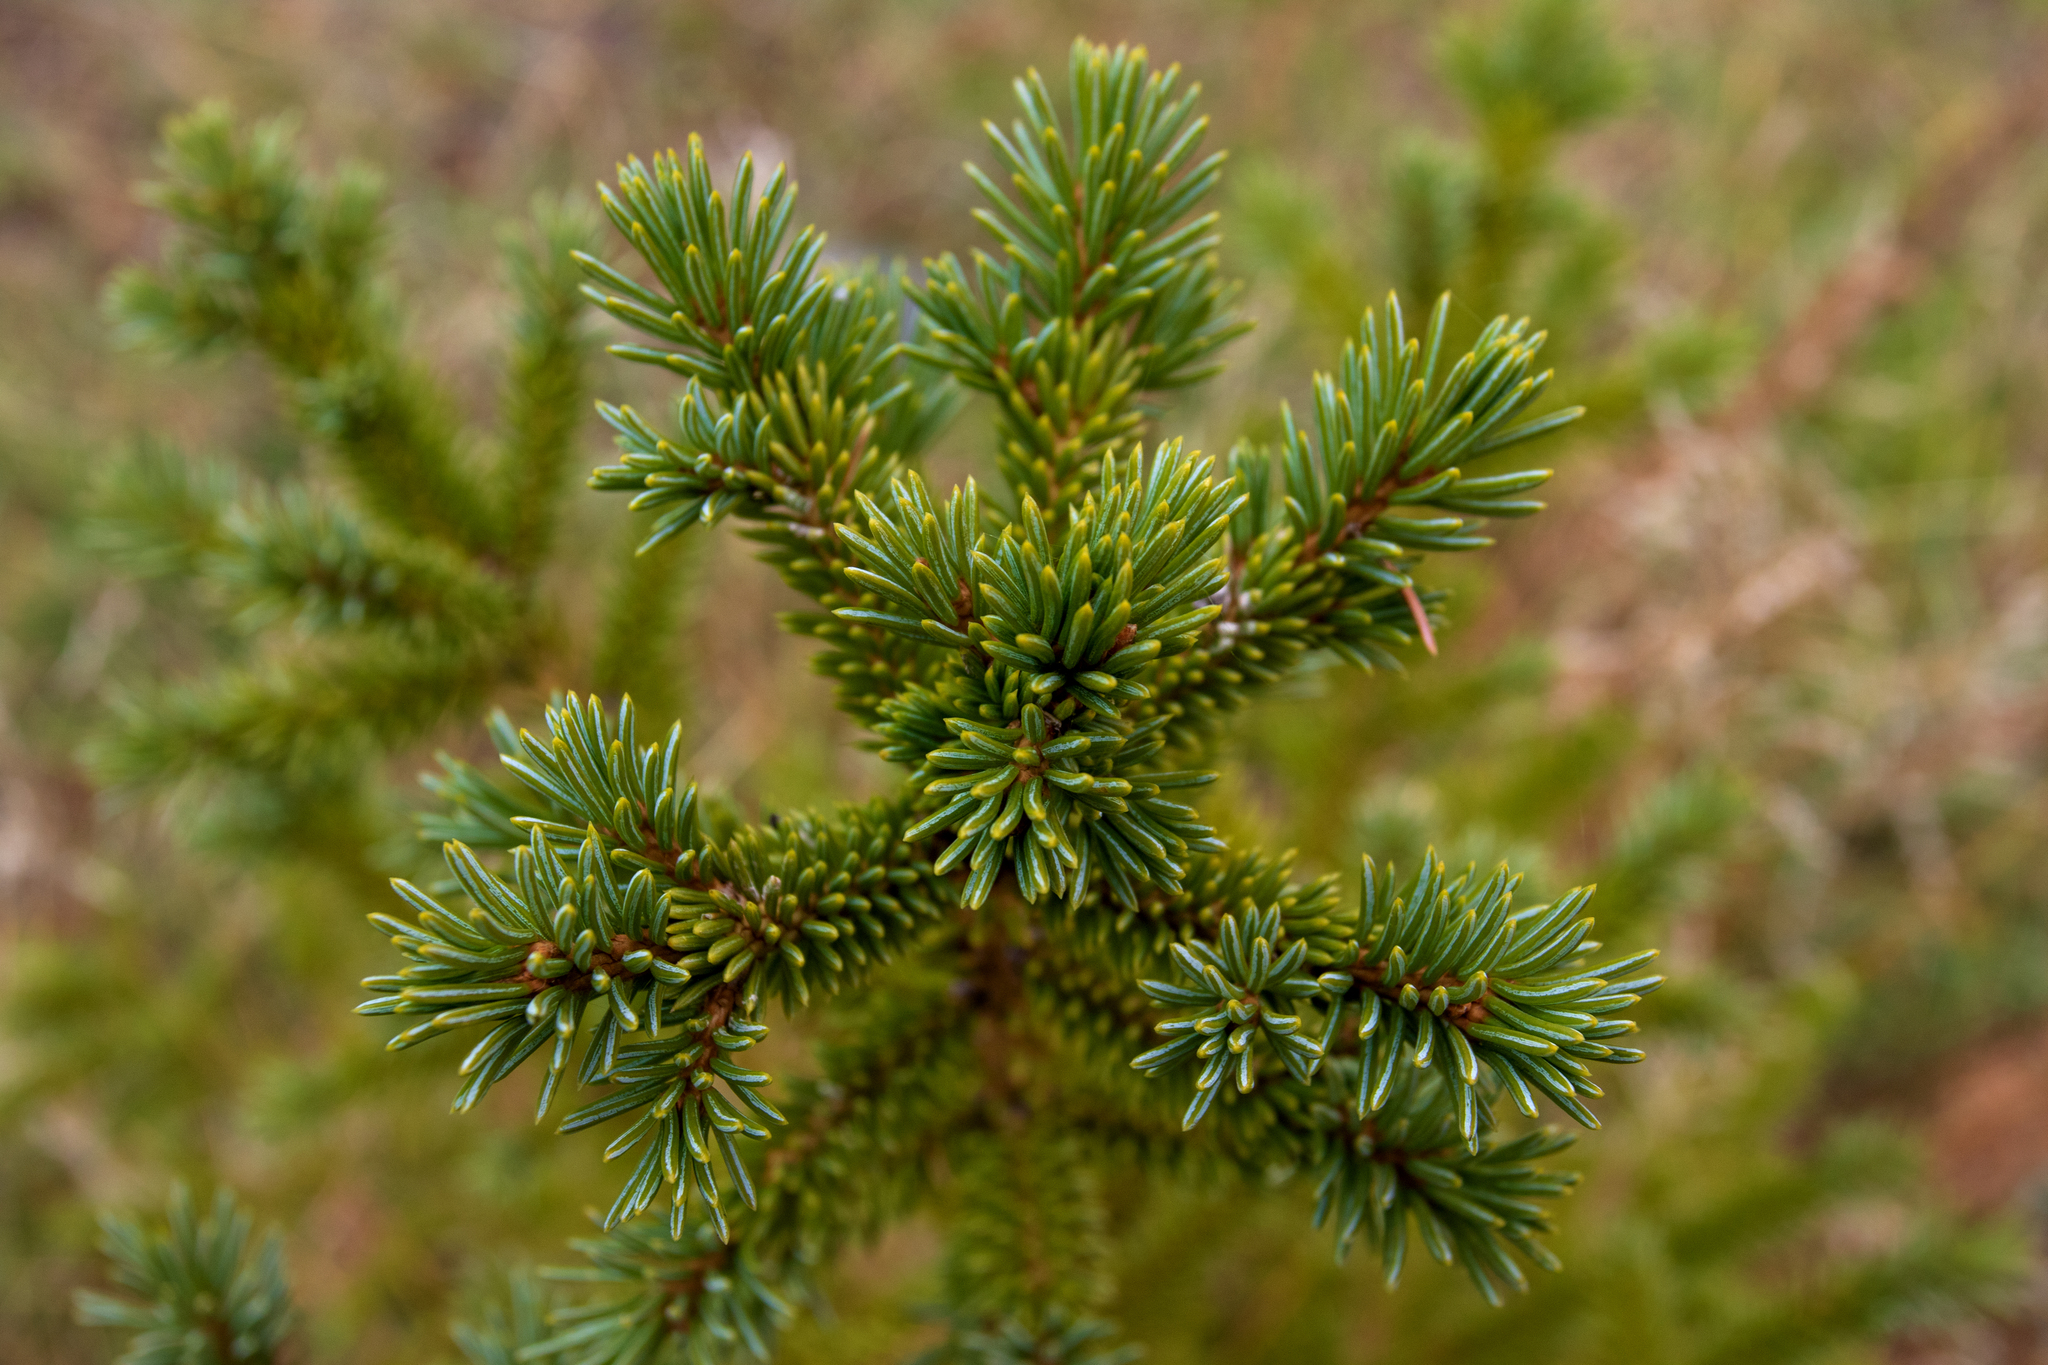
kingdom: Plantae
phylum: Tracheophyta
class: Pinopsida
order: Pinales
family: Pinaceae
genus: Picea
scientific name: Picea obovata
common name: Siberian spruce
